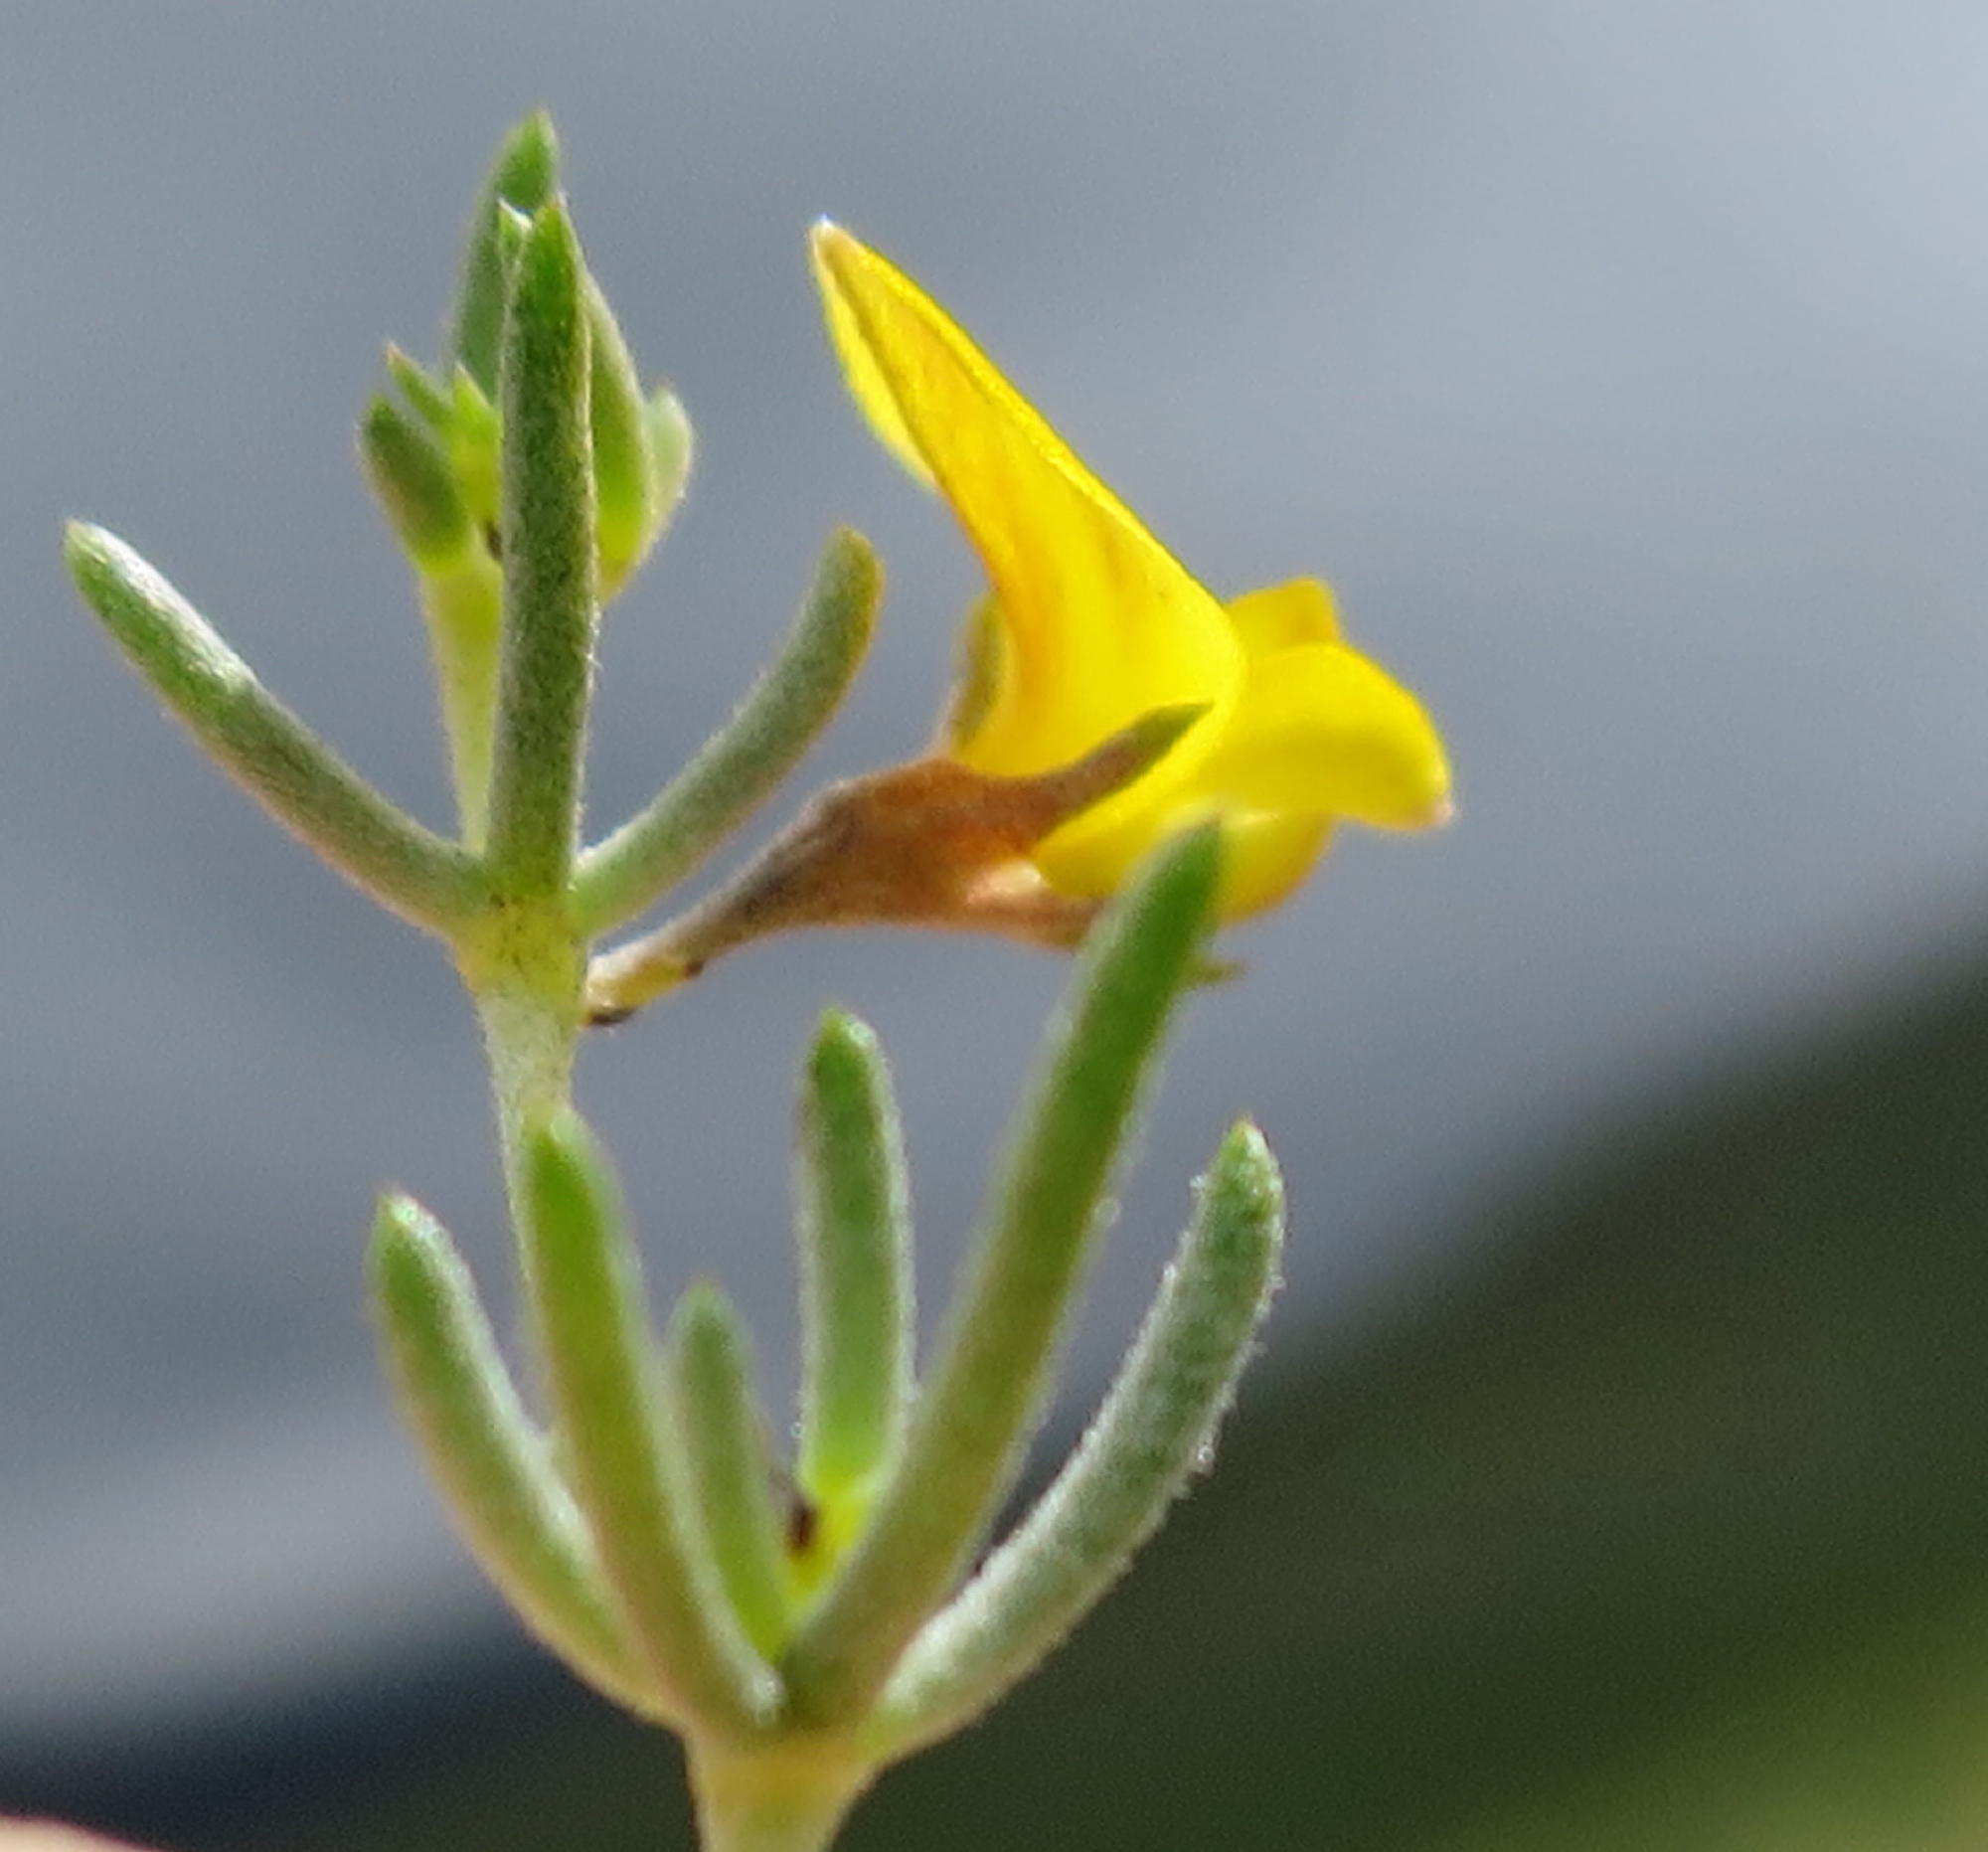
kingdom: Plantae
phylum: Tracheophyta
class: Magnoliopsida
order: Fabales
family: Fabaceae
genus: Aspalathus
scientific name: Aspalathus digitifolia
